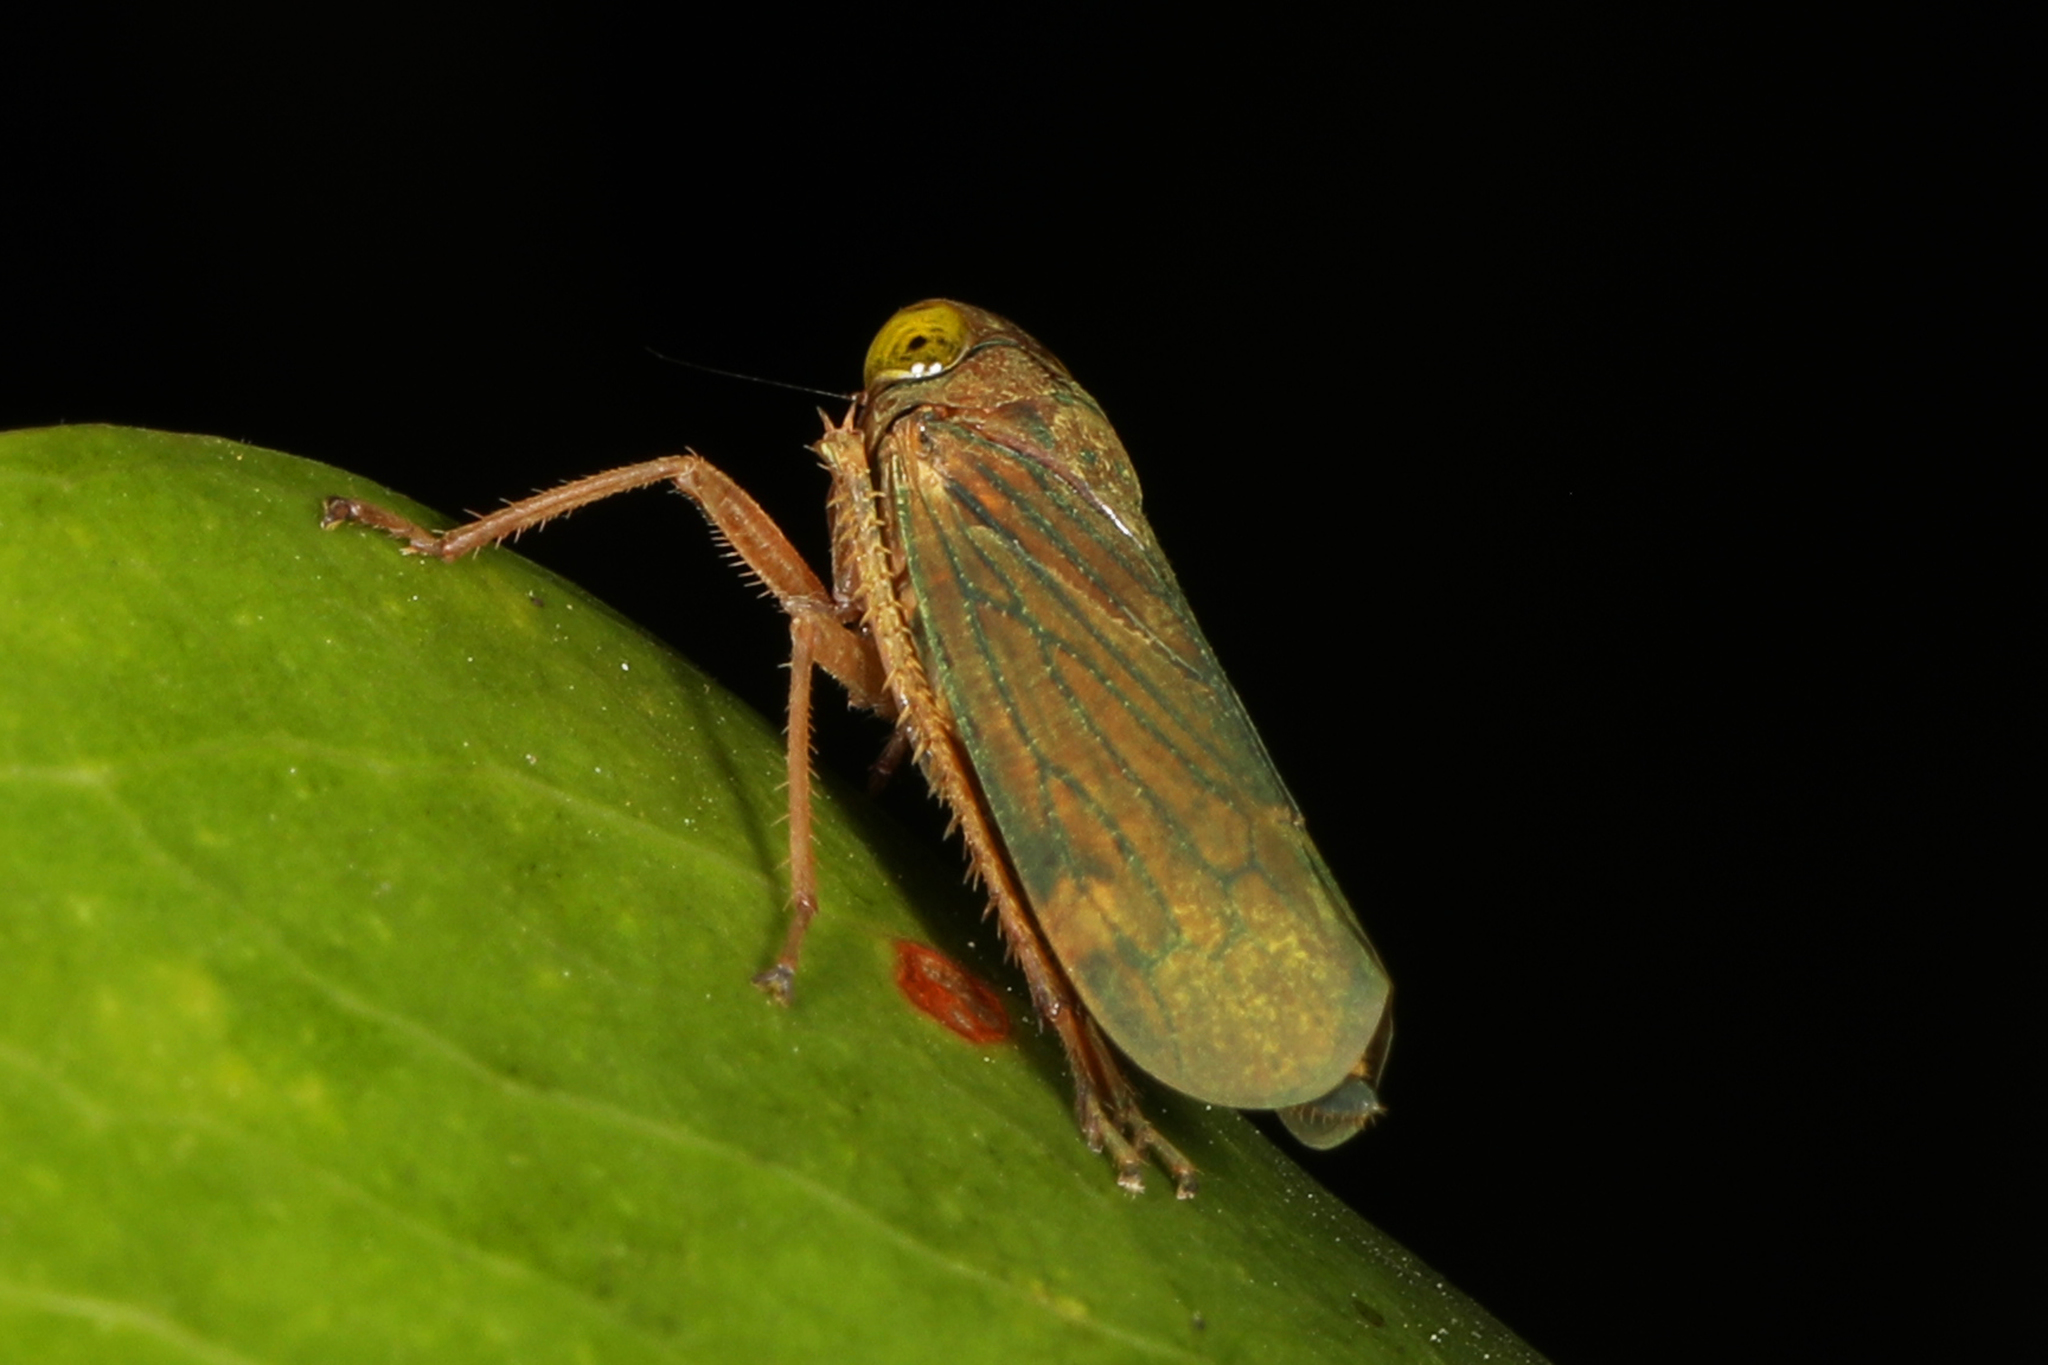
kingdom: Animalia
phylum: Arthropoda
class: Insecta
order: Hemiptera
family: Cicadellidae
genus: Jikradia
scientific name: Jikradia olitoria
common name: Coppery leafhopper
